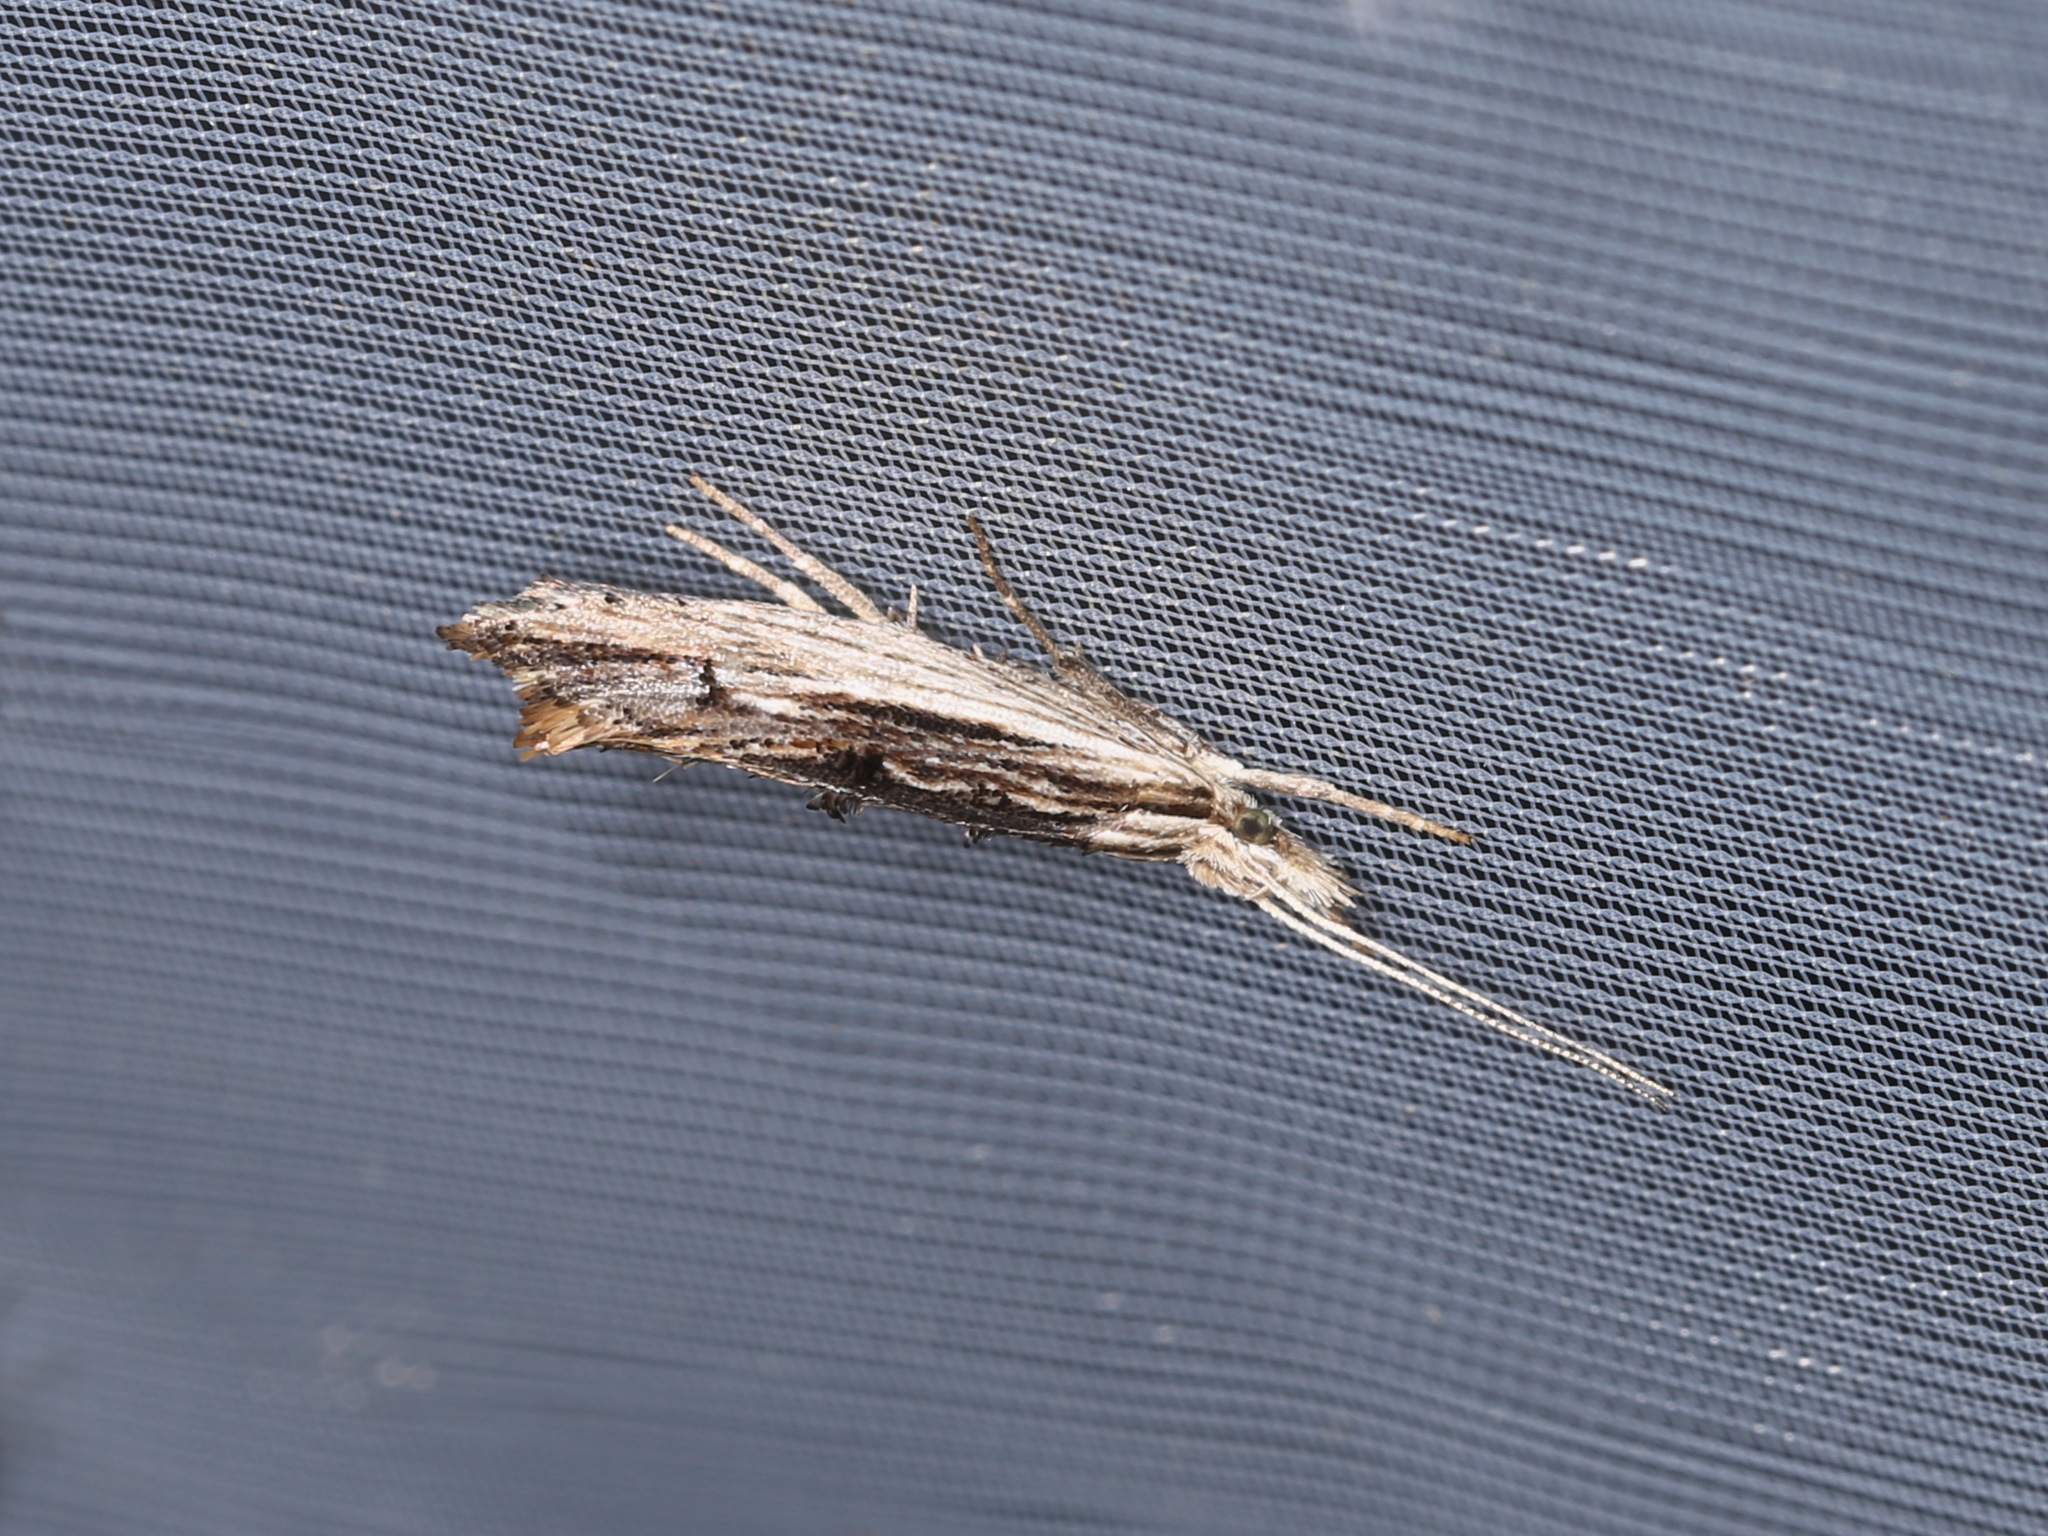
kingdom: Animalia
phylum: Arthropoda
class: Insecta
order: Lepidoptera
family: Ypsolophidae
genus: Ypsolopha
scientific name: Ypsolopha scabrella
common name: Wainscot smudge
